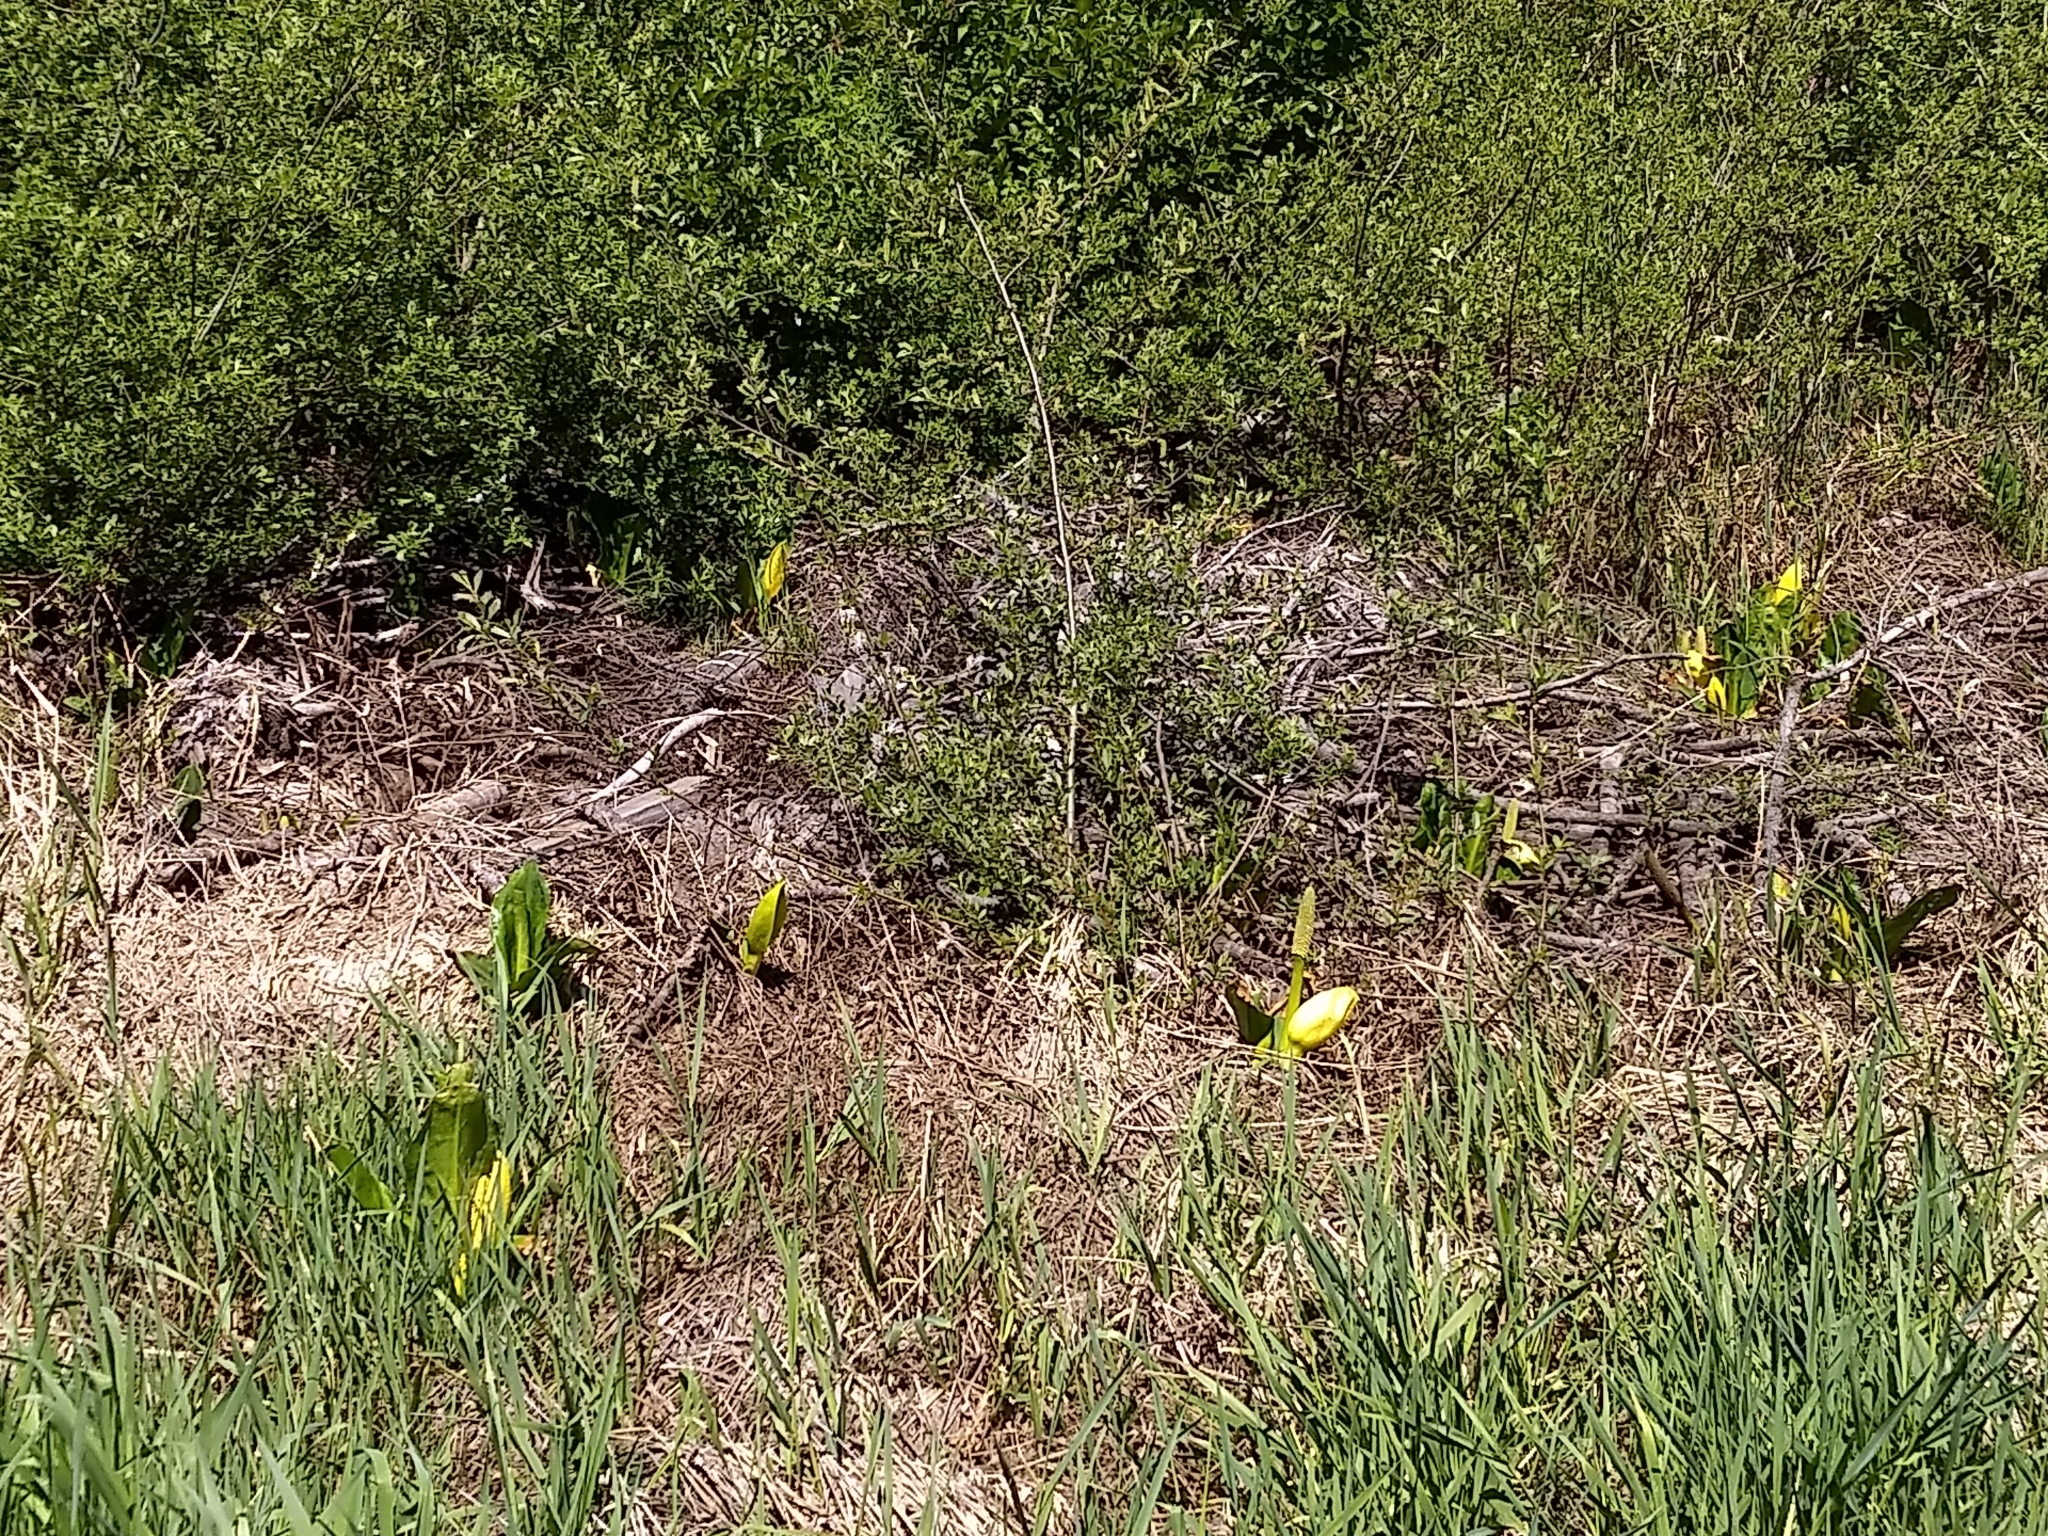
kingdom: Plantae
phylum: Tracheophyta
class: Liliopsida
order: Alismatales
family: Araceae
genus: Lysichiton
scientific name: Lysichiton americanus
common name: American skunk cabbage
